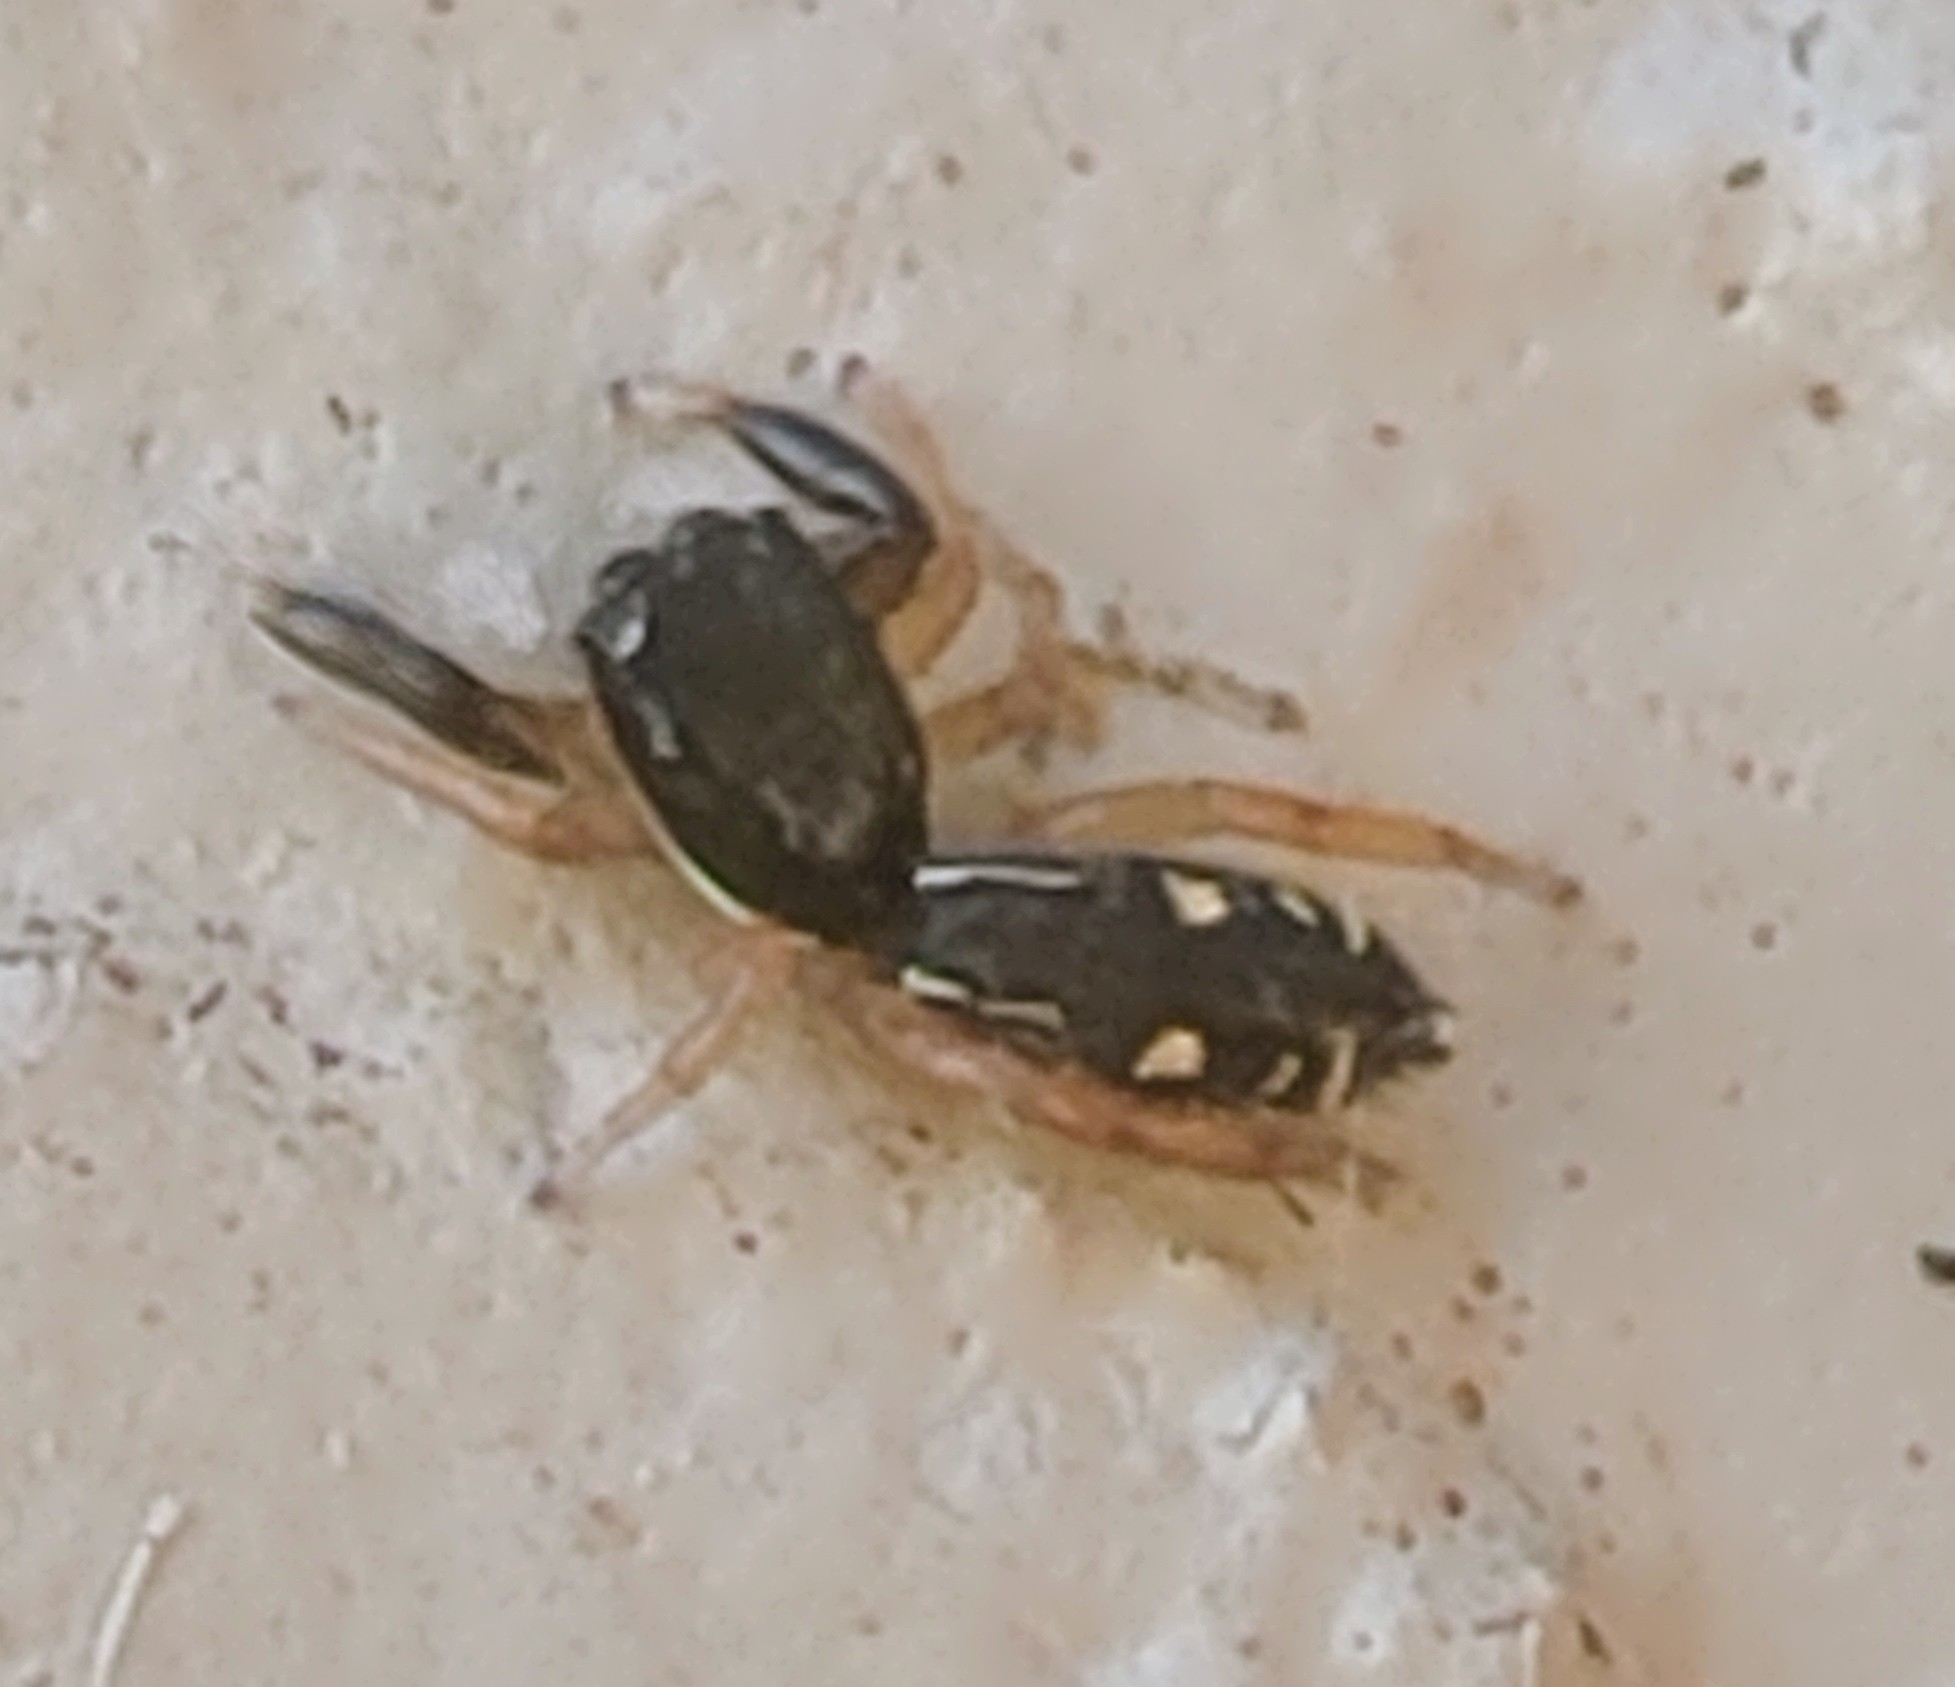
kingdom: Animalia
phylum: Arthropoda
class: Arachnida
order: Araneae
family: Salticidae
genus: Metacyrba
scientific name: Metacyrba punctata
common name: Jumping spiders
